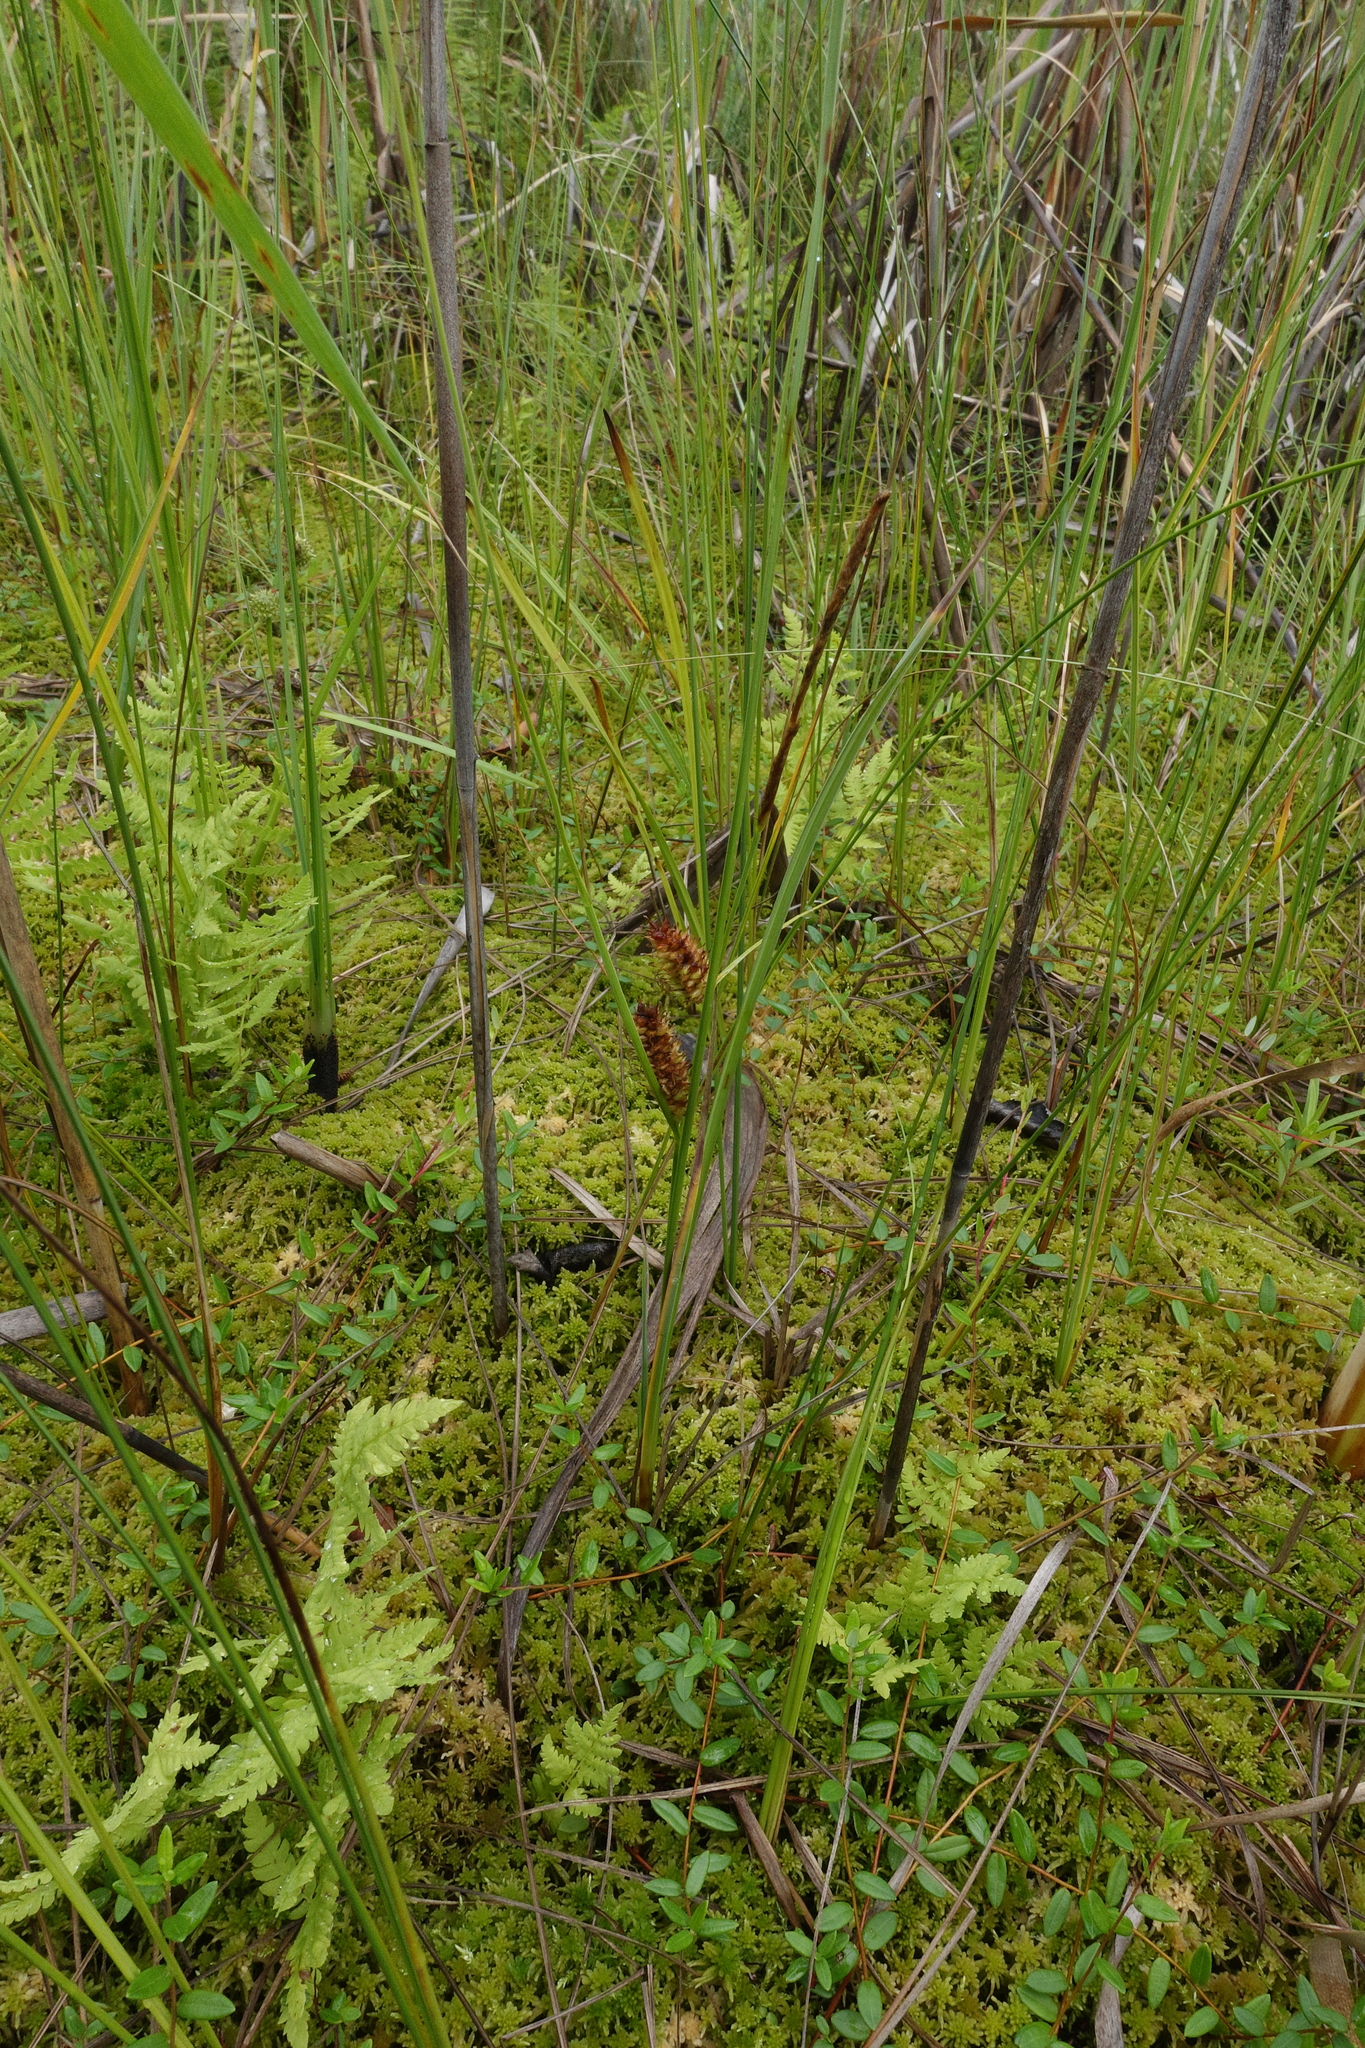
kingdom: Plantae
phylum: Tracheophyta
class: Liliopsida
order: Poales
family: Cyperaceae
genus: Carex
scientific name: Carex rostrata
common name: Bottle sedge
